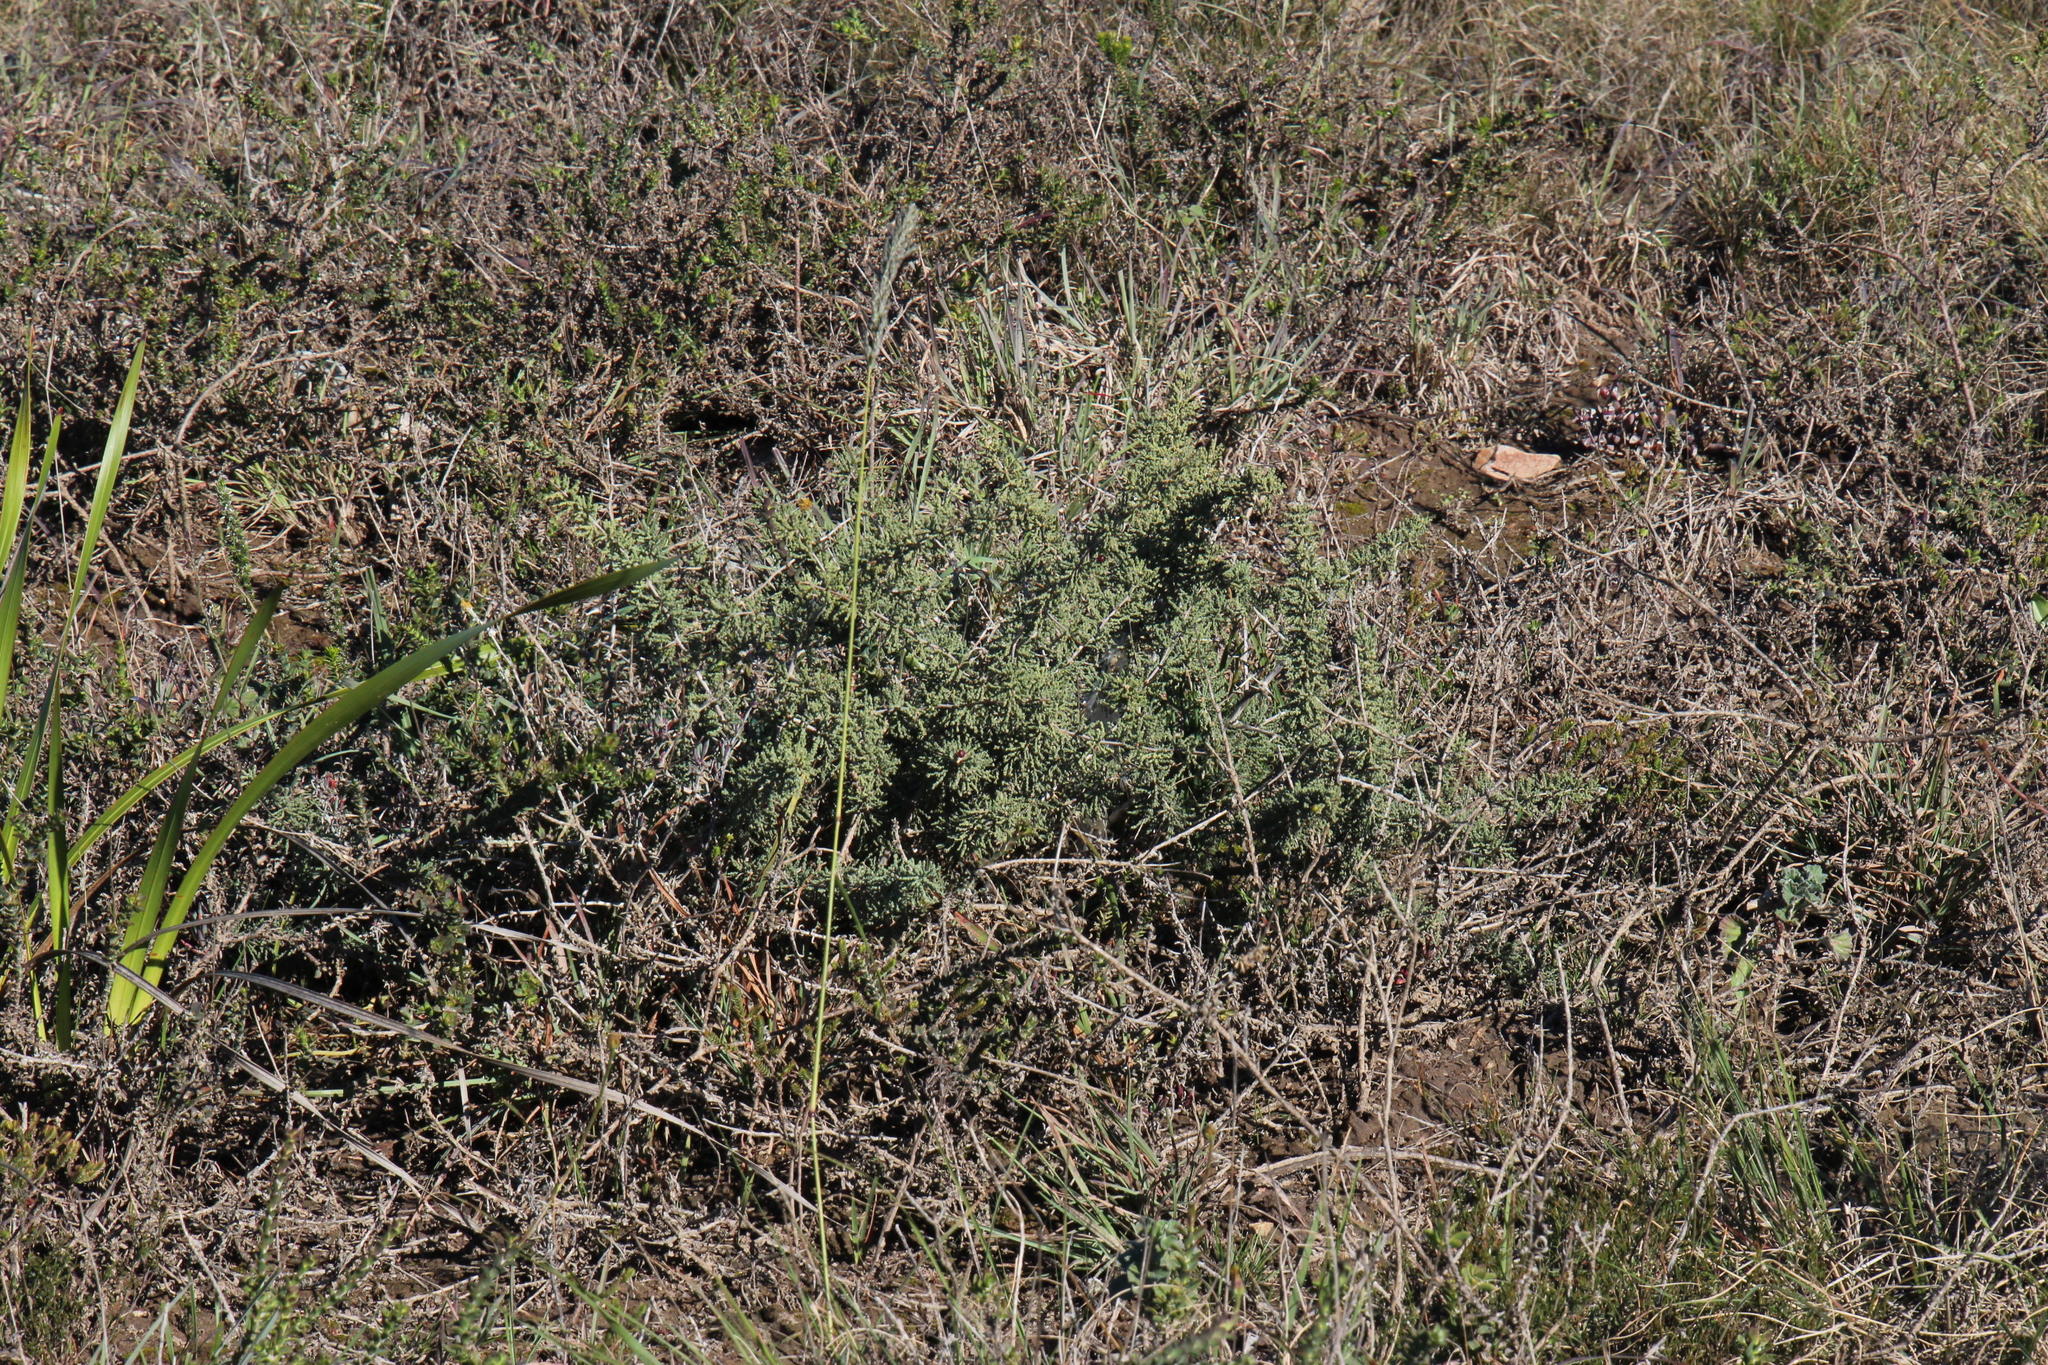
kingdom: Plantae
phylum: Tracheophyta
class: Liliopsida
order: Asparagales
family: Asparagaceae
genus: Asparagus
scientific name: Asparagus capensis
